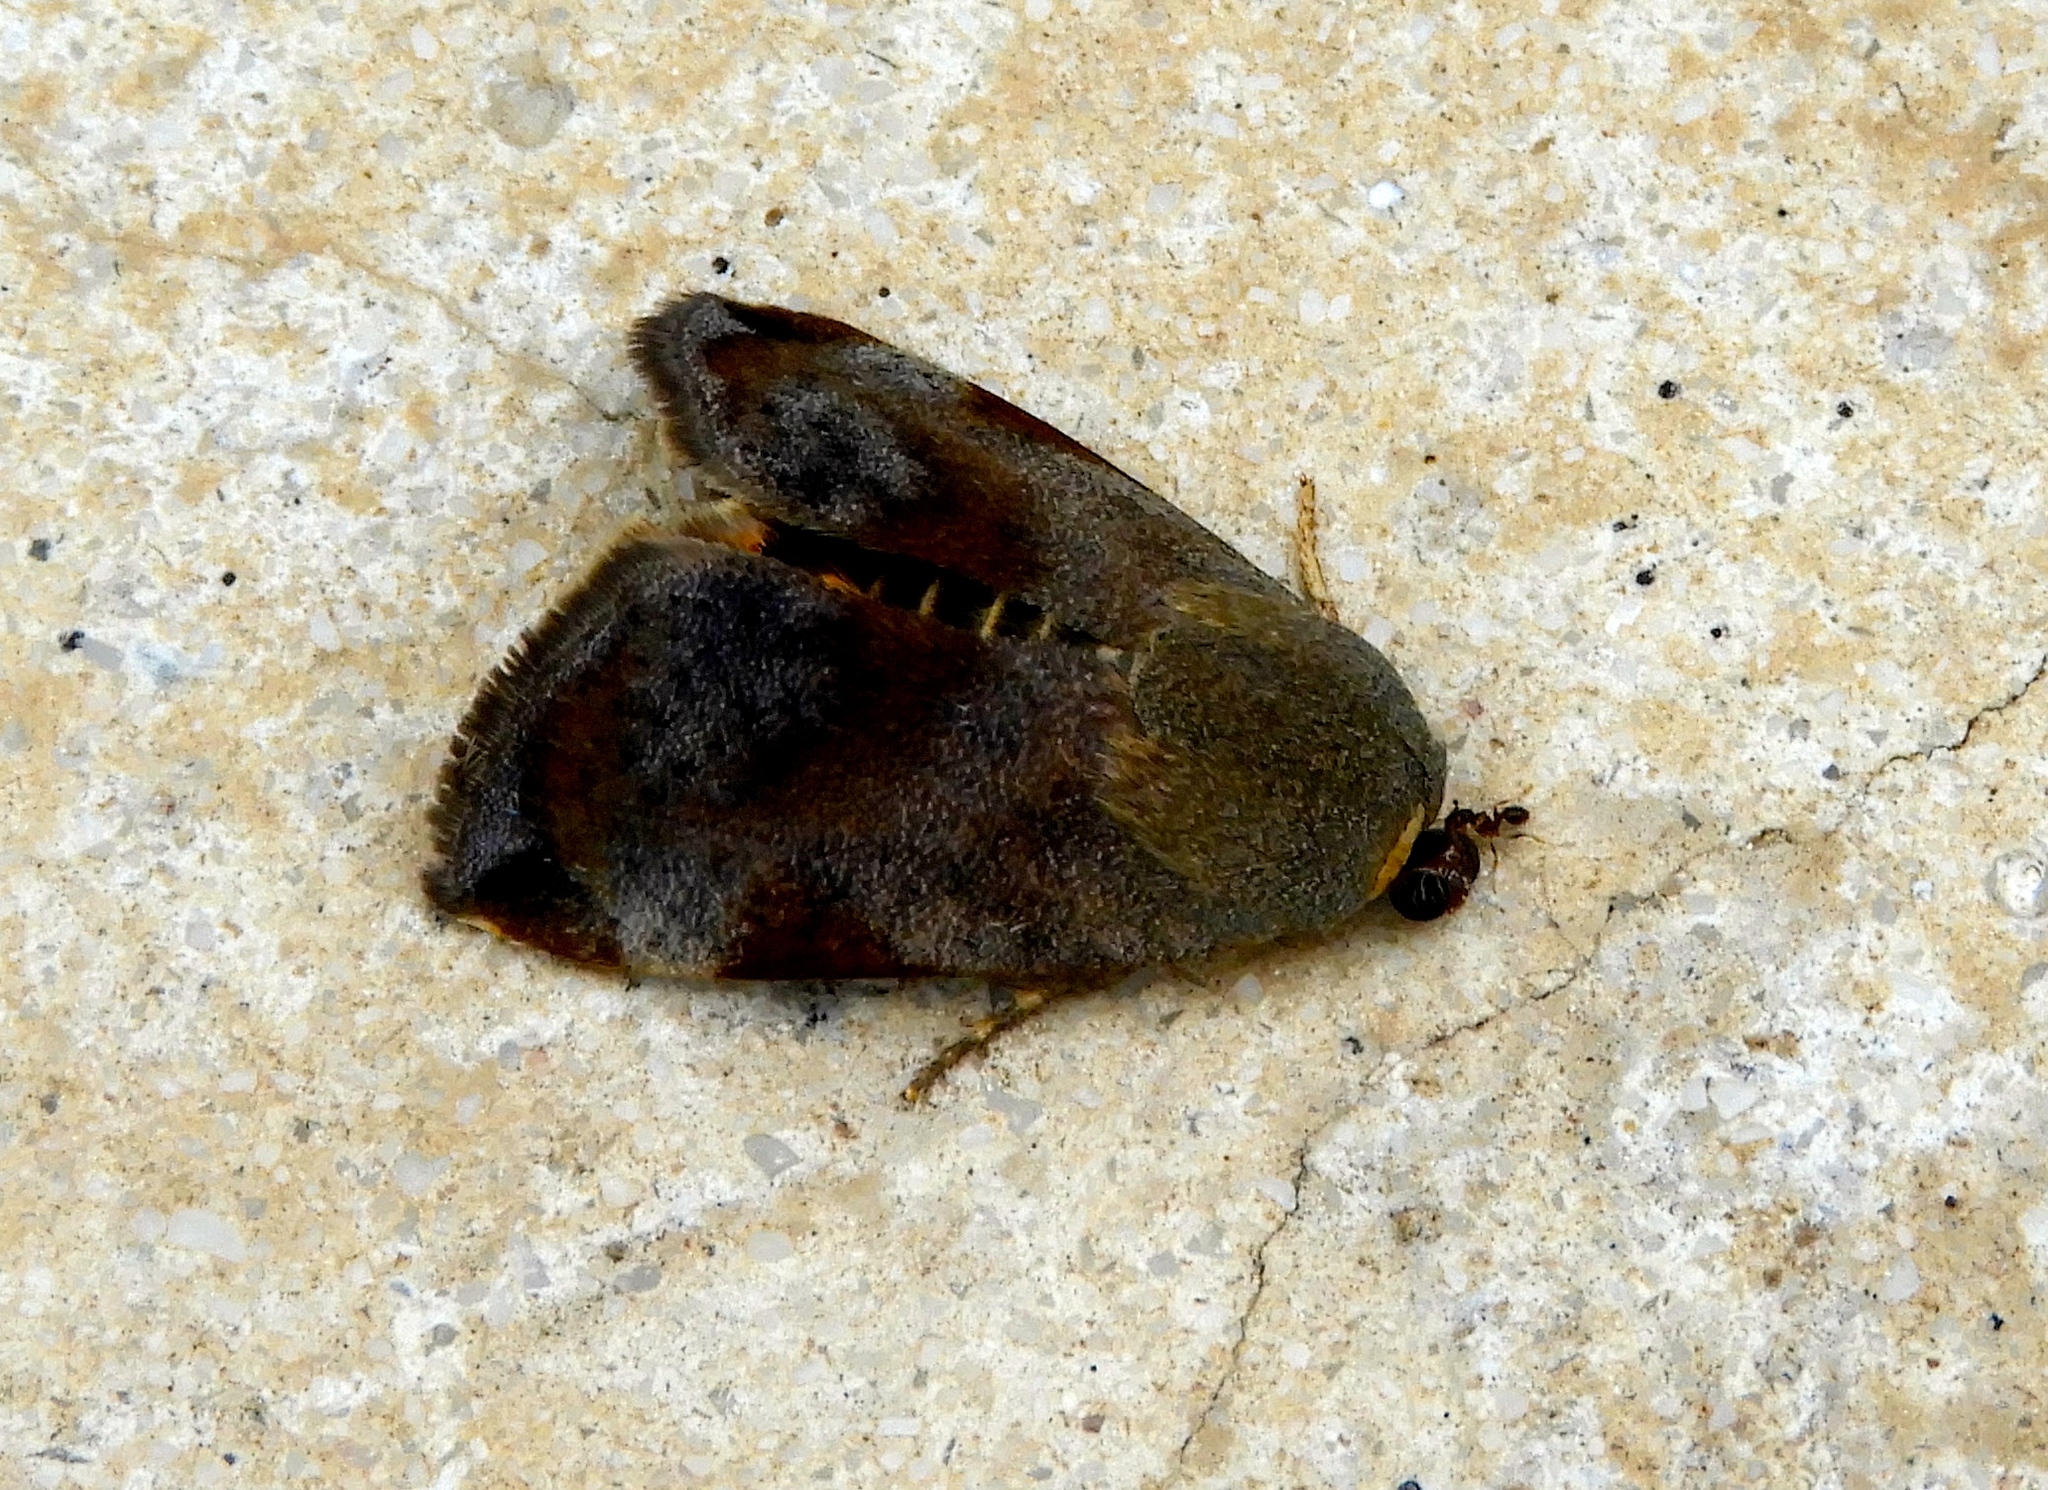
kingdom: Animalia
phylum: Arthropoda
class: Insecta
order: Lepidoptera
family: Hyblaeidae
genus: Hyblaea
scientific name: Hyblaea
